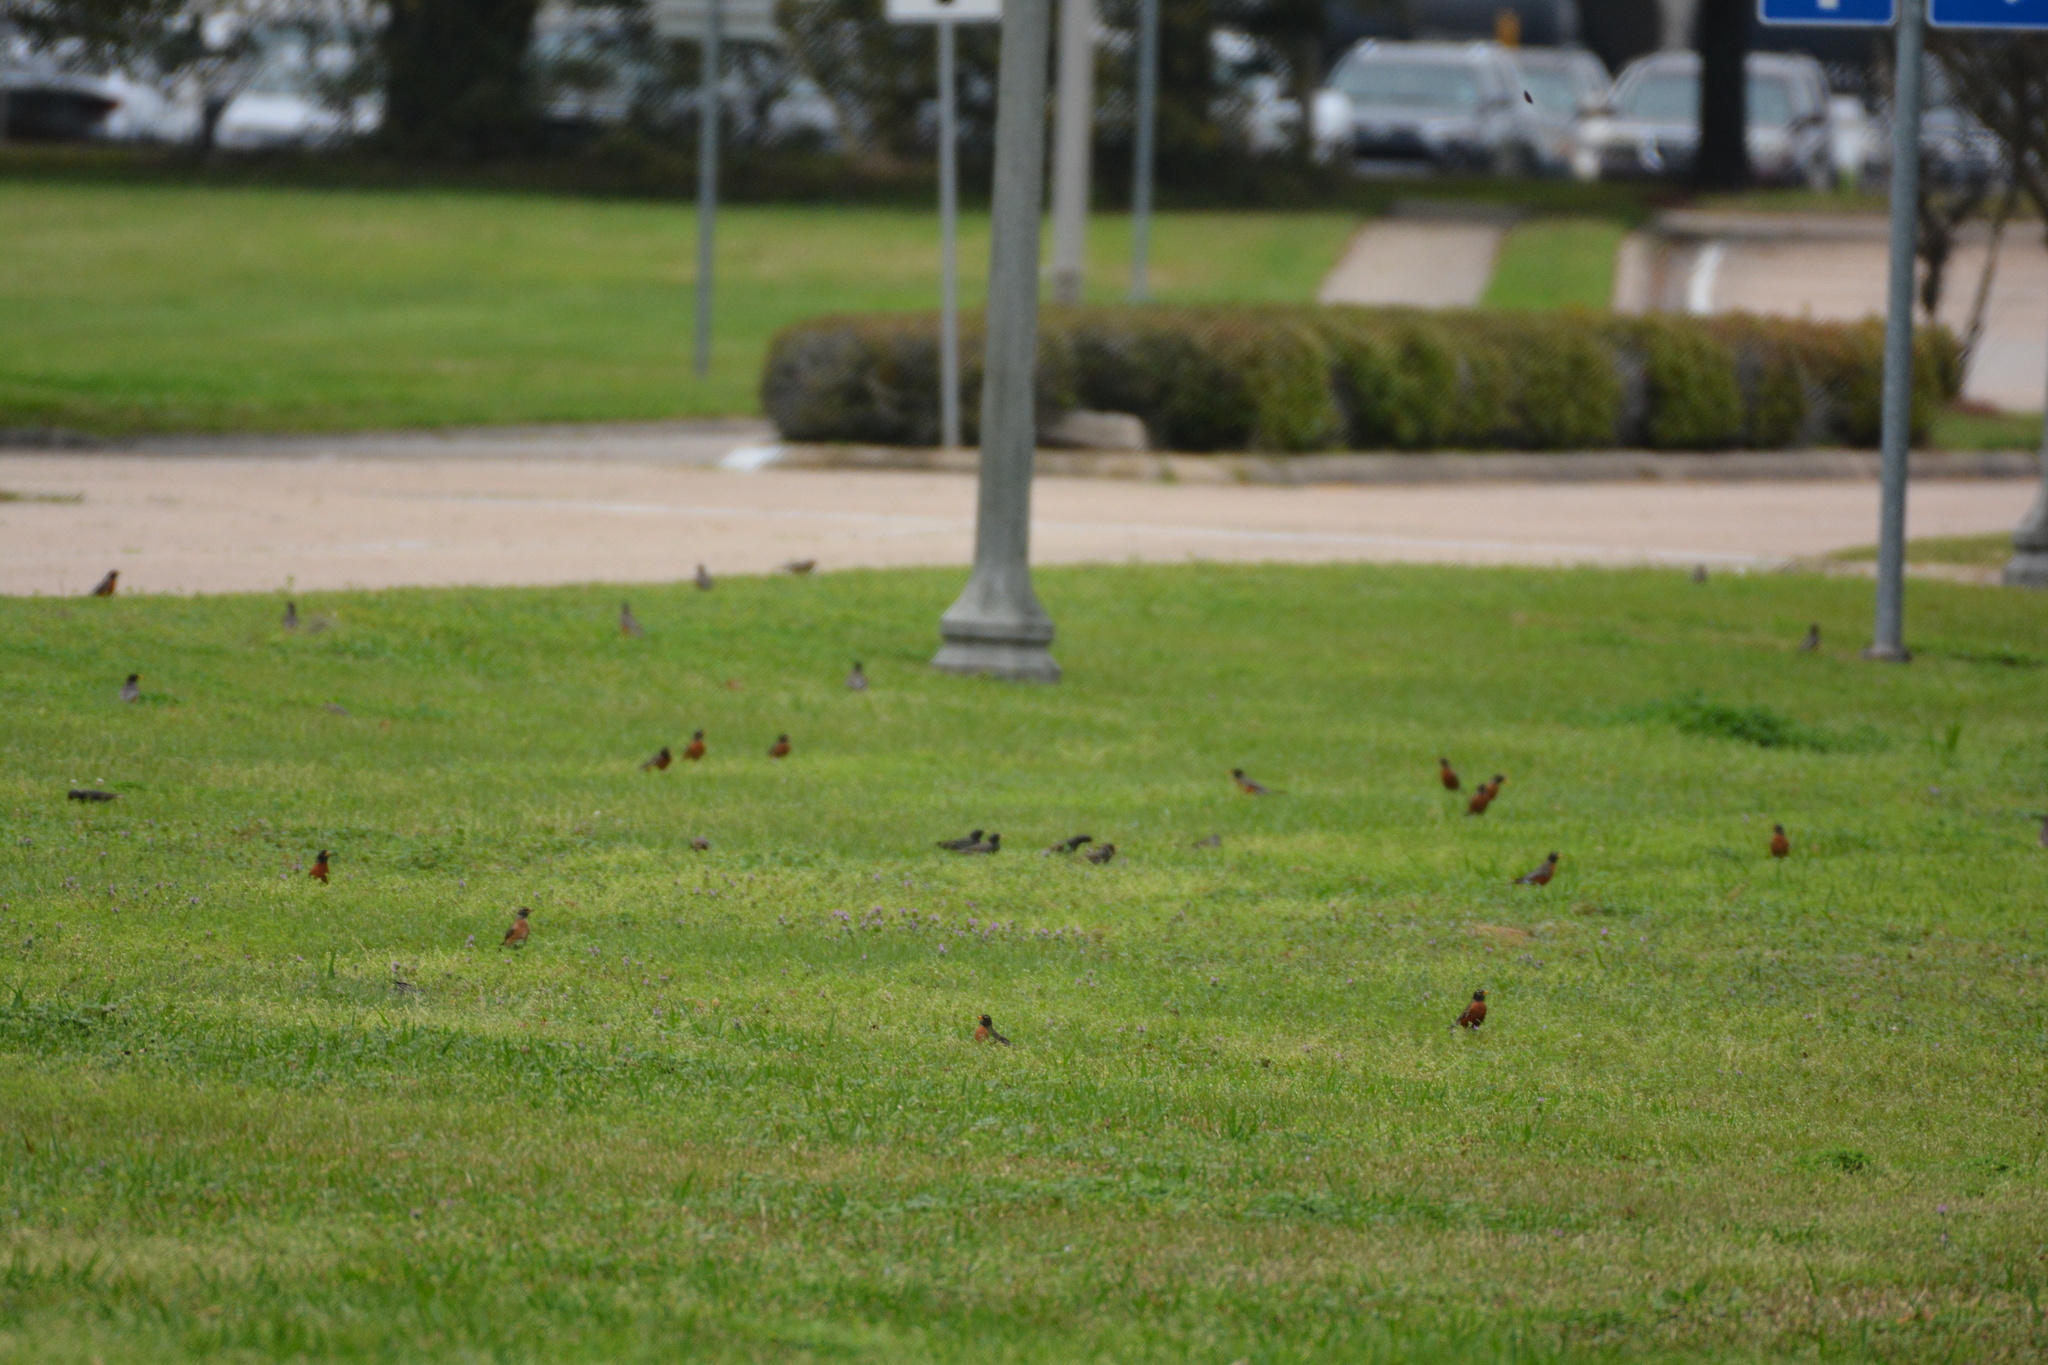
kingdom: Animalia
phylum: Chordata
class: Aves
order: Passeriformes
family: Turdidae
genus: Turdus
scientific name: Turdus migratorius
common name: American robin
